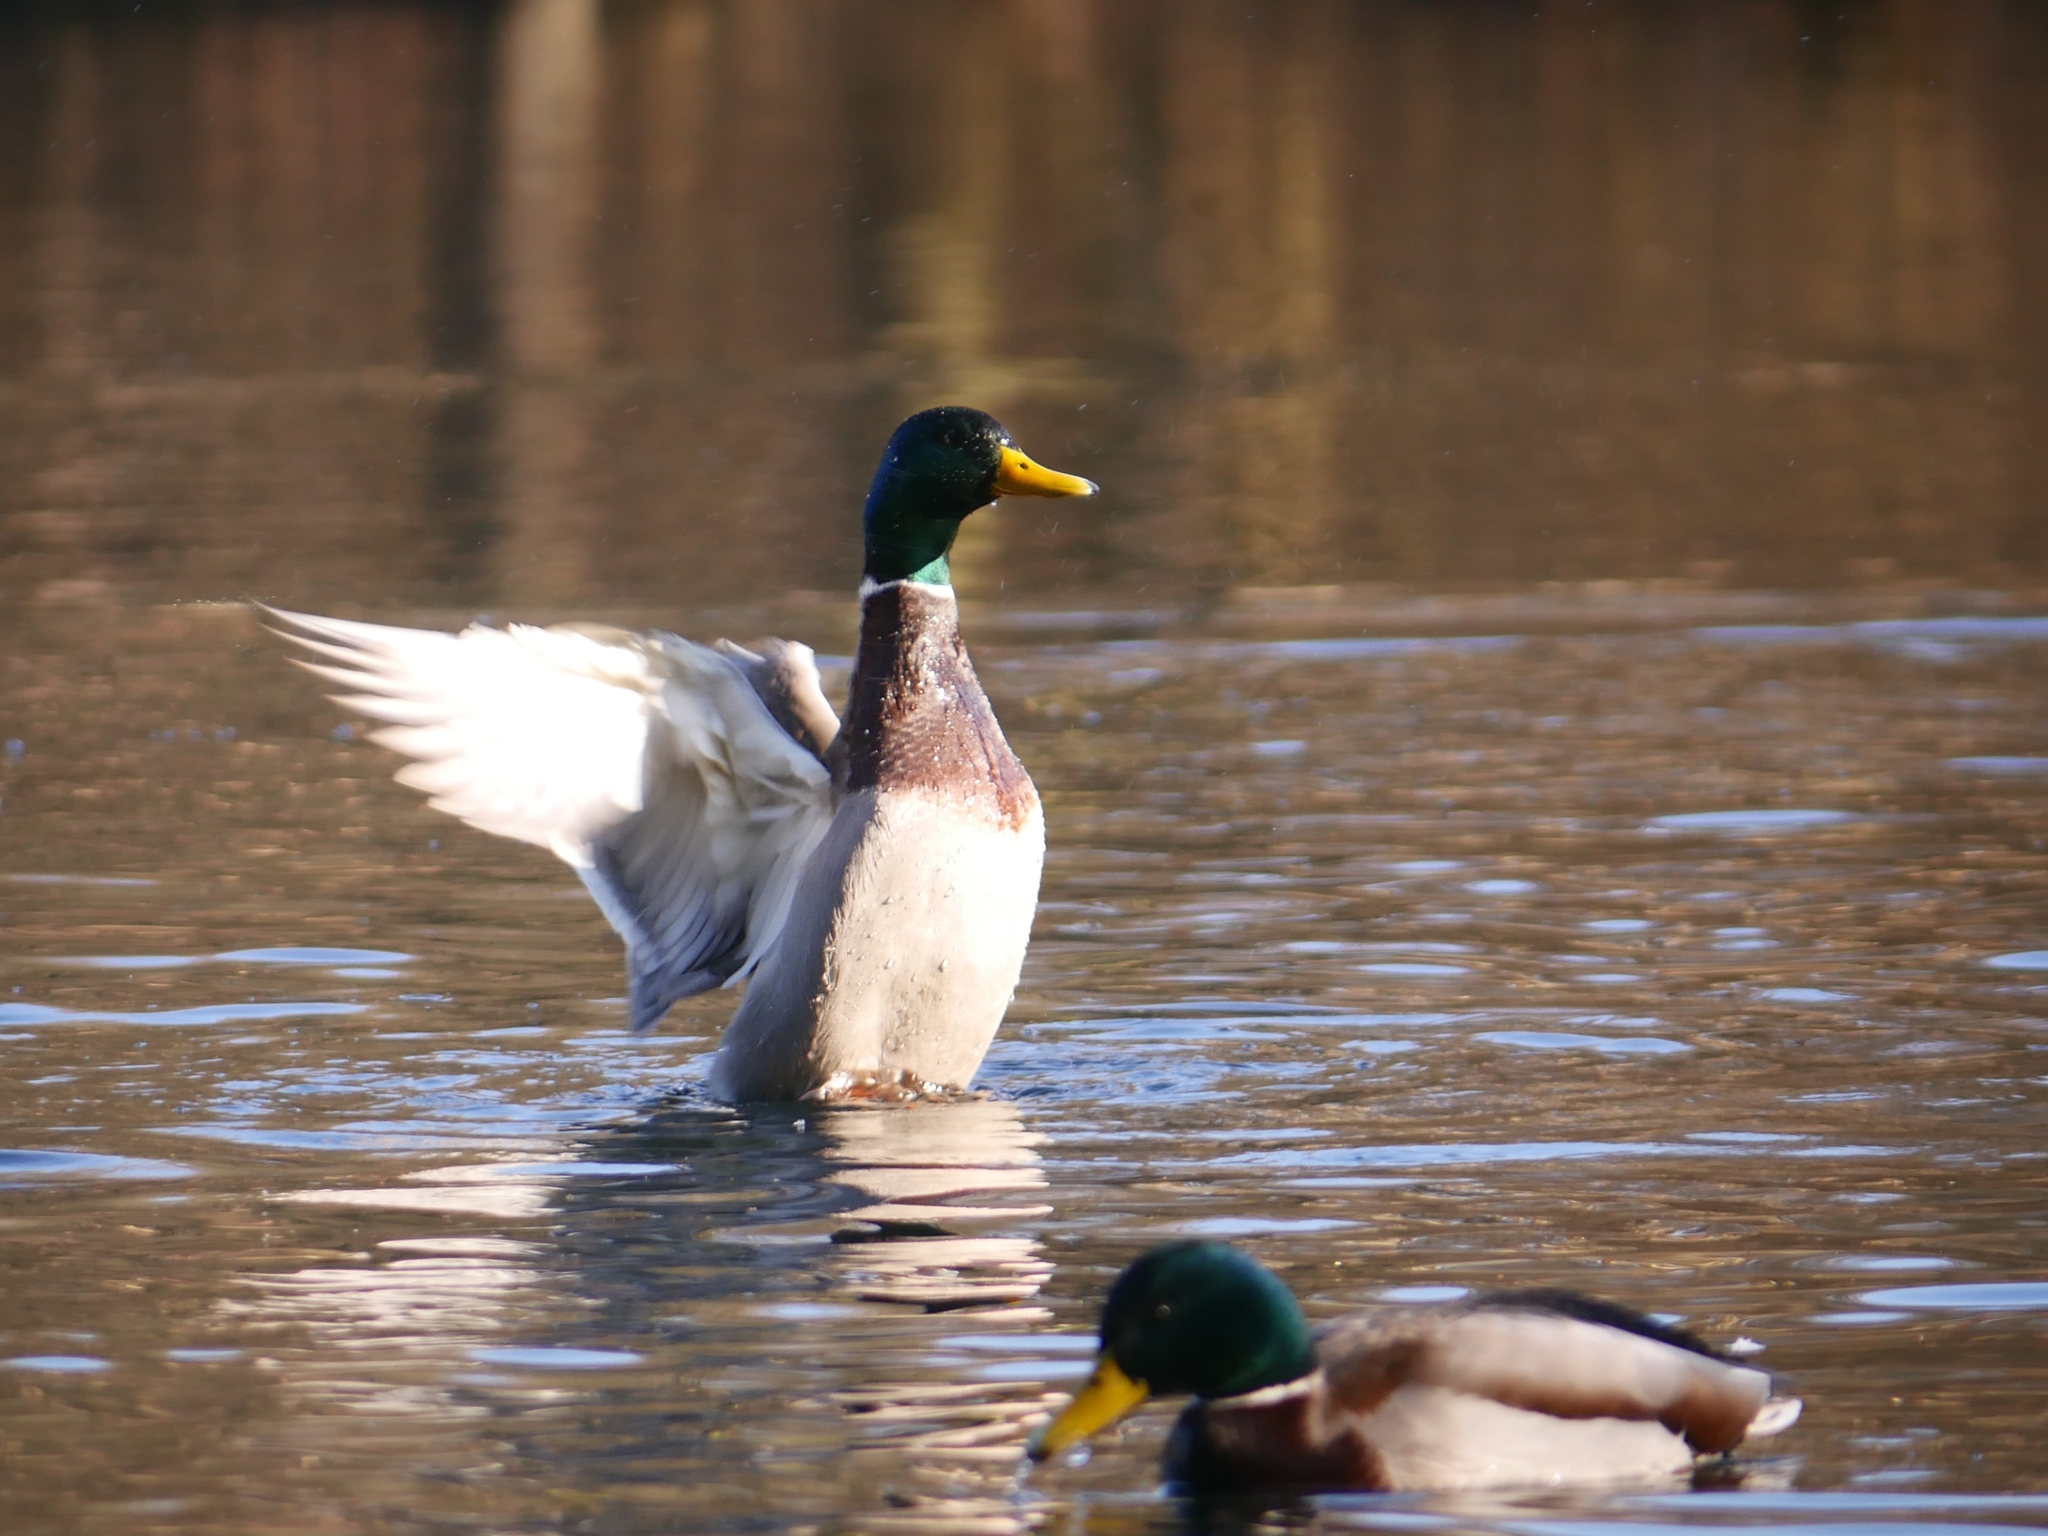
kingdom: Animalia
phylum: Chordata
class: Aves
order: Anseriformes
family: Anatidae
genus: Anas
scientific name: Anas platyrhynchos
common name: Mallard
